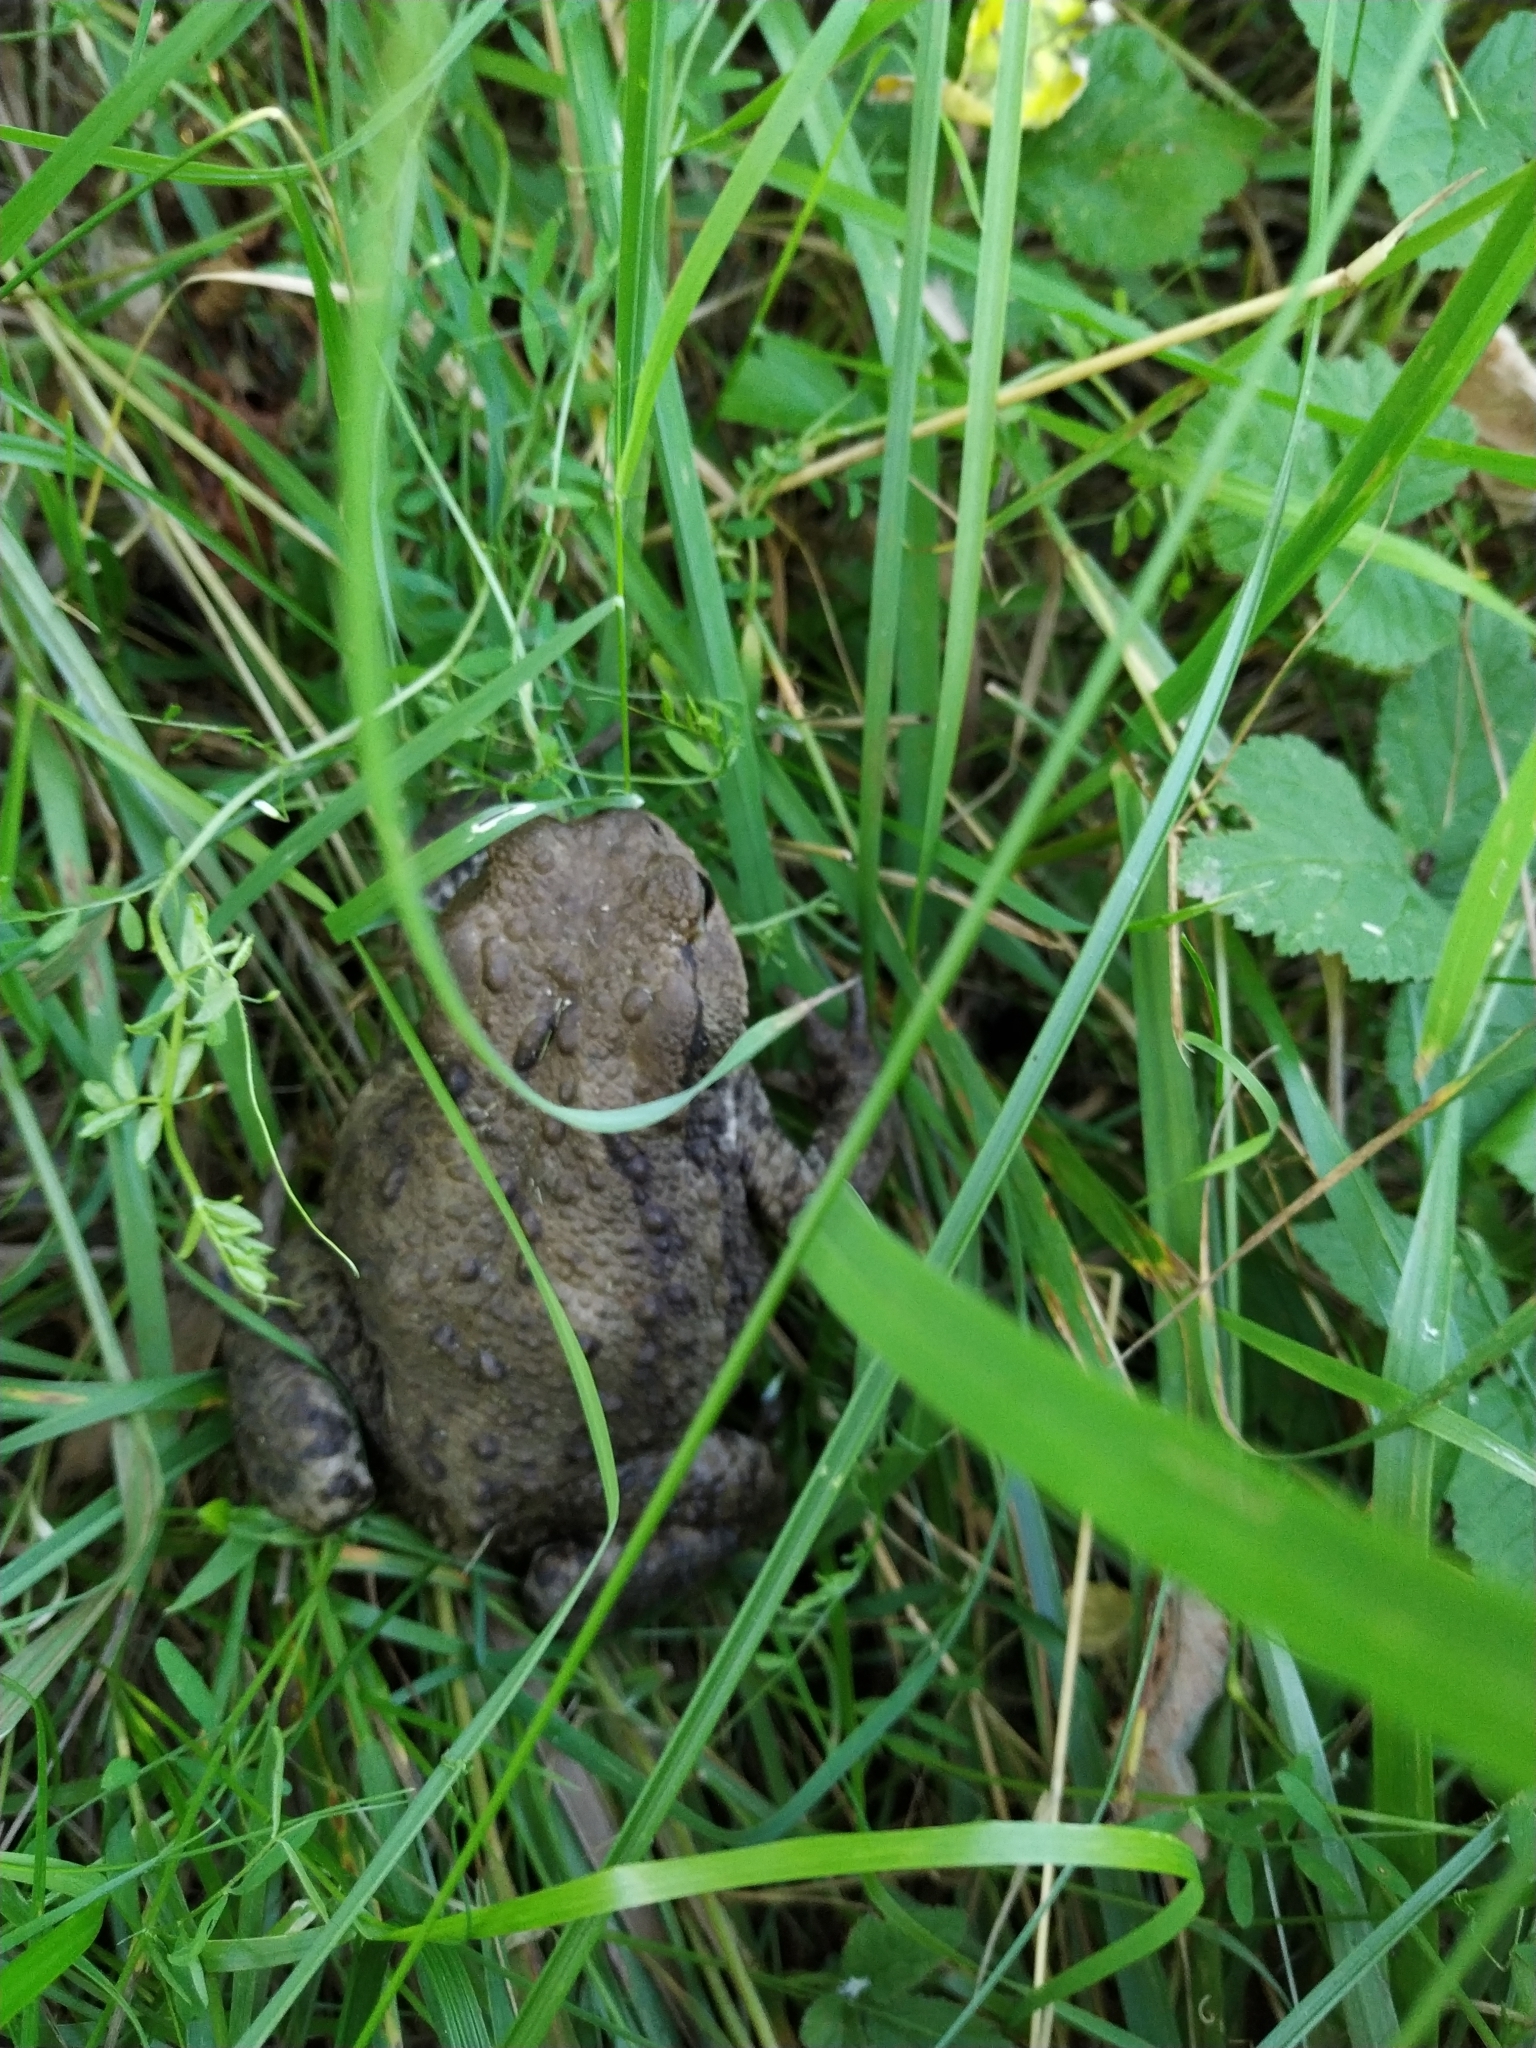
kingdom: Animalia
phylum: Chordata
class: Amphibia
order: Anura
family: Bufonidae
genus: Bufo
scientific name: Bufo bufo
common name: Common toad
